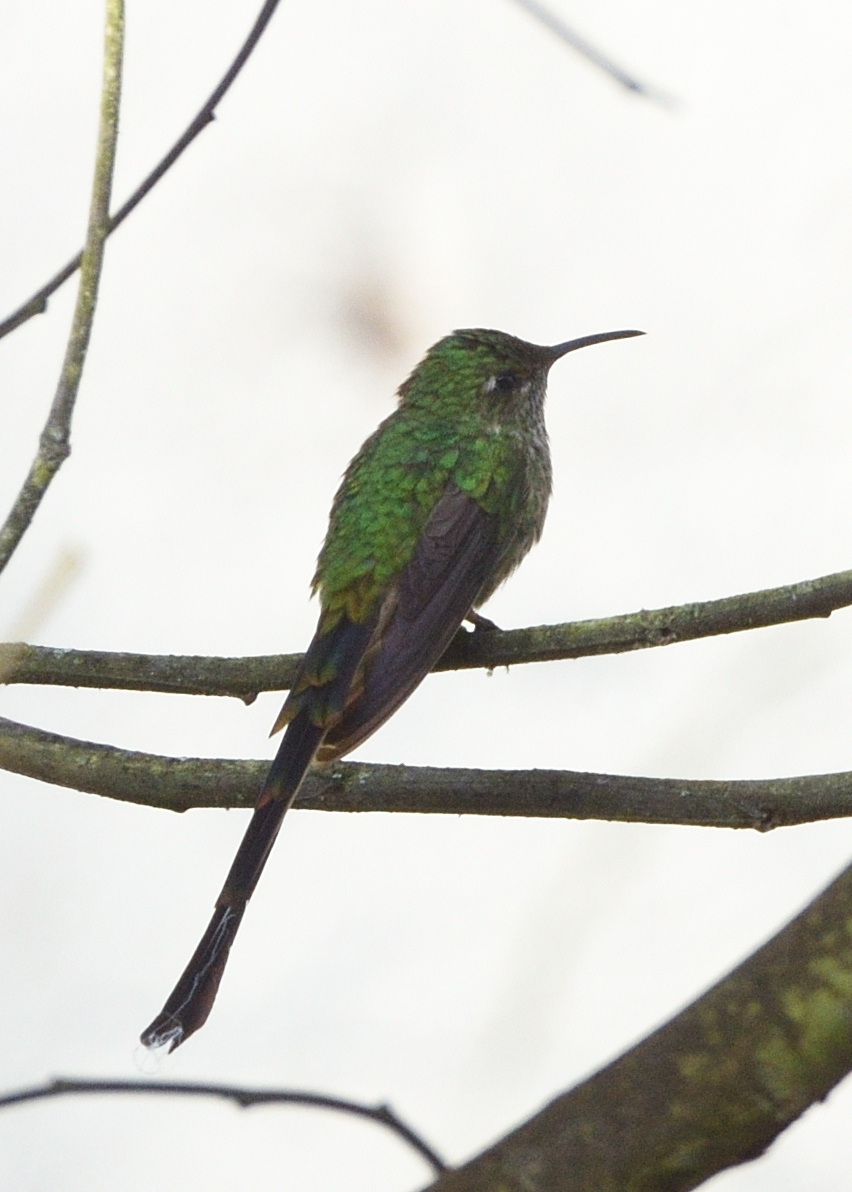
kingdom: Animalia
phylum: Chordata
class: Aves
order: Apodiformes
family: Trochilidae
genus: Lesbia
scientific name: Lesbia victoriae
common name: Black-tailed trainbearer
